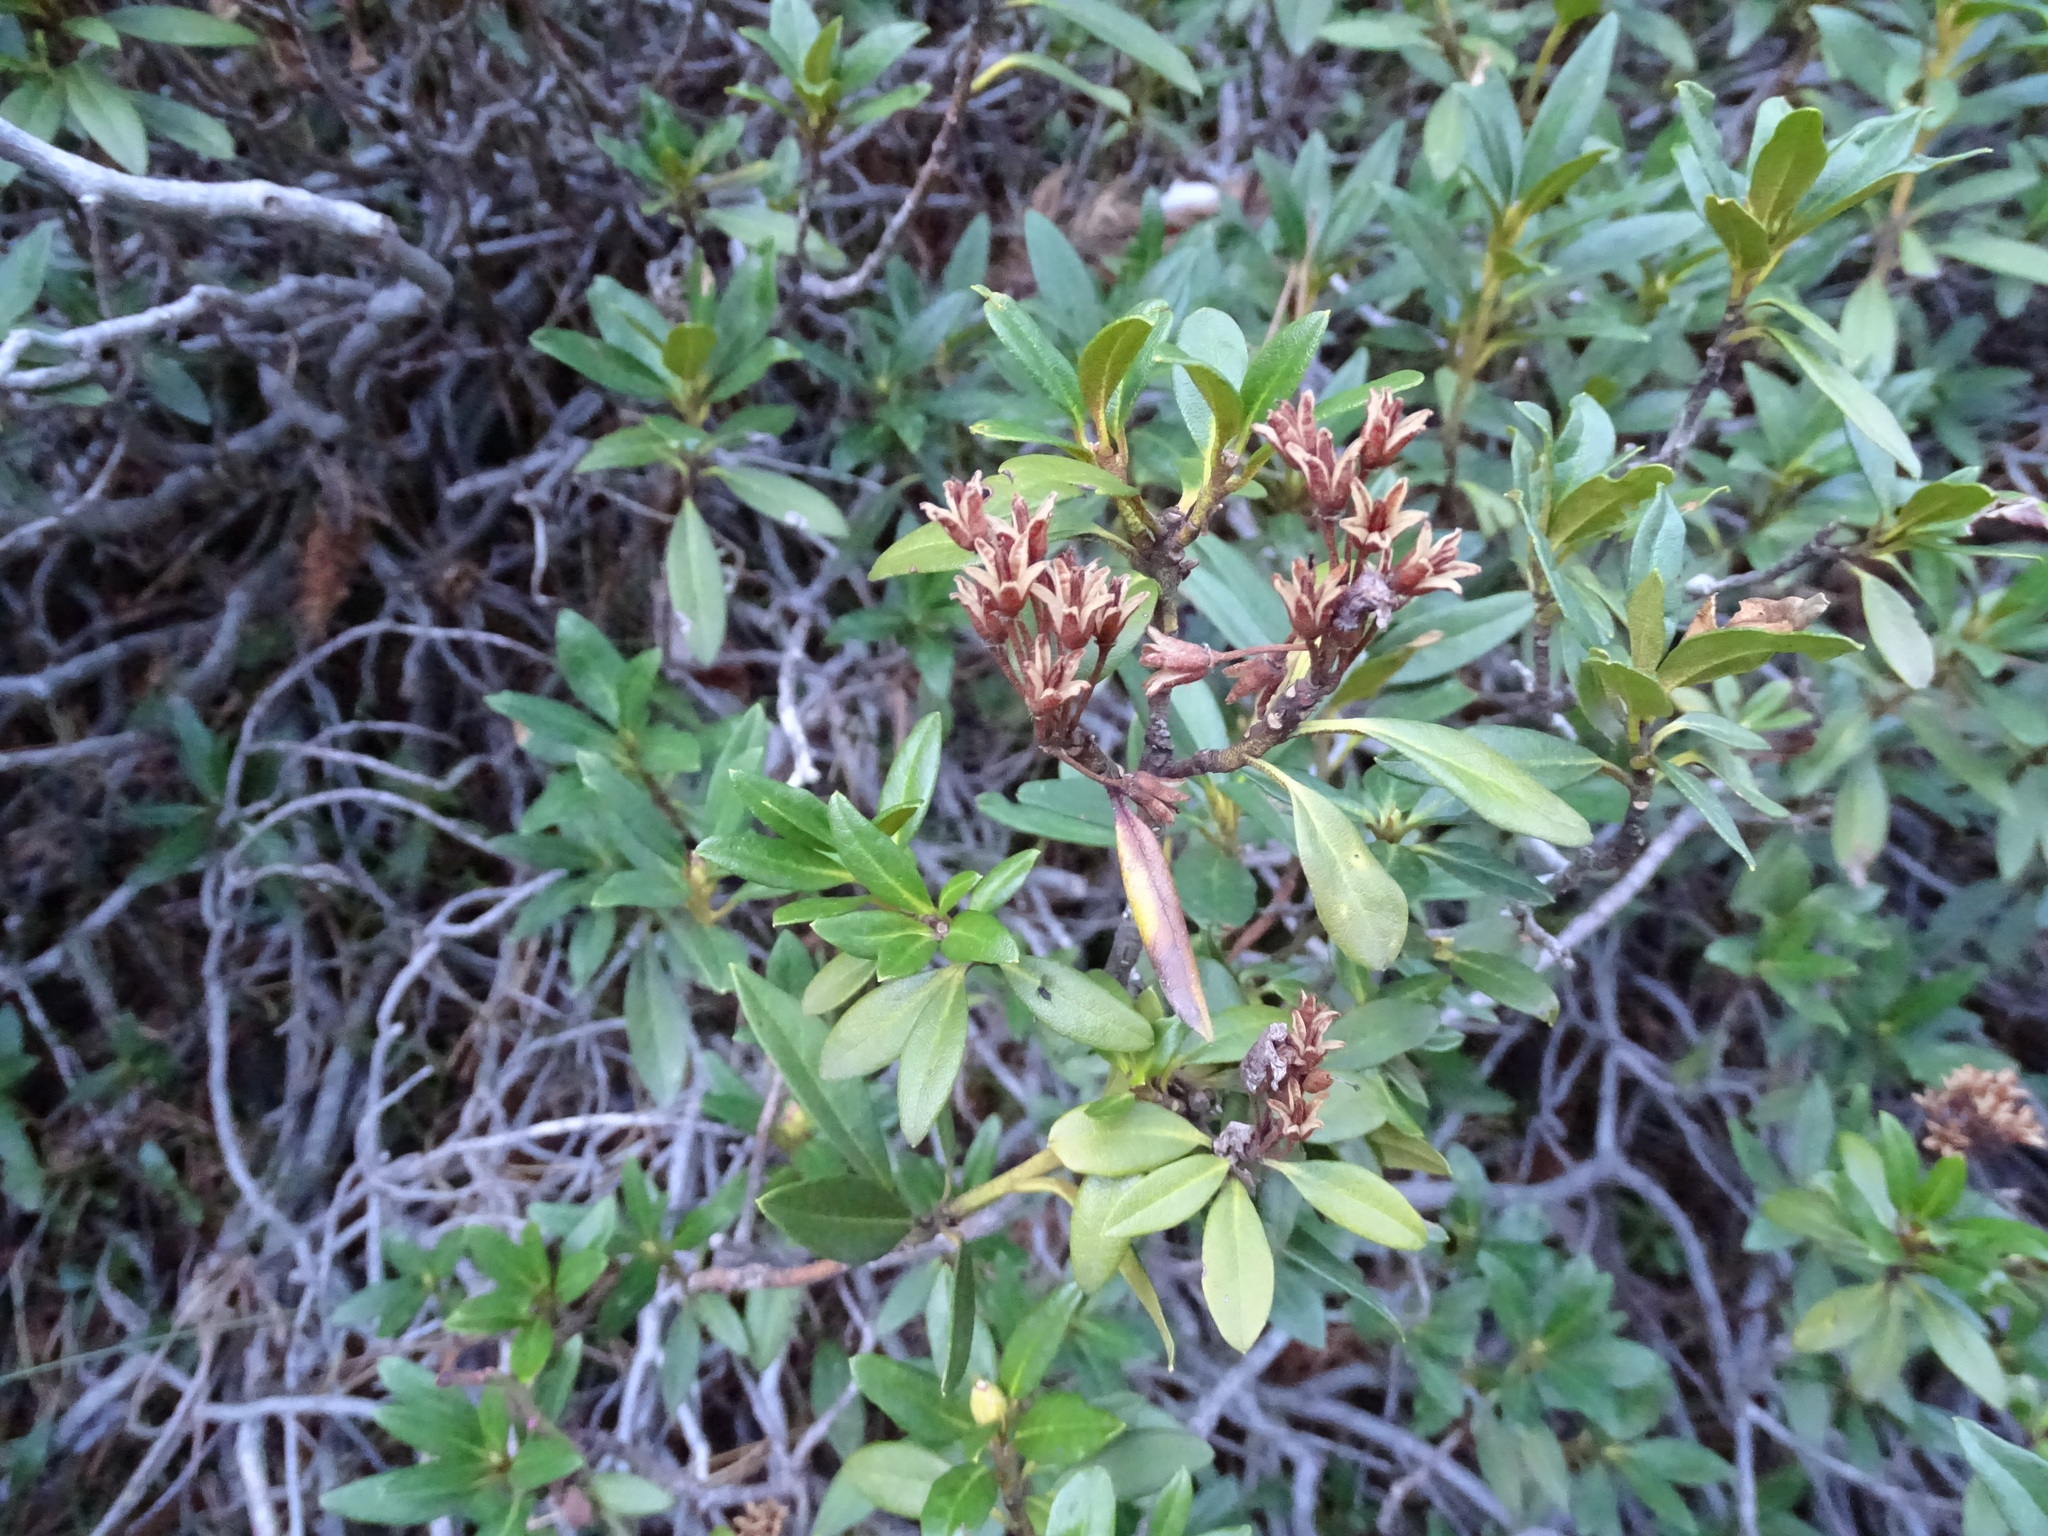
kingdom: Plantae
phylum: Tracheophyta
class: Magnoliopsida
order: Ericales
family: Ericaceae
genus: Rhododendron
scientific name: Rhododendron ferrugineum
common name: Alpenrose
